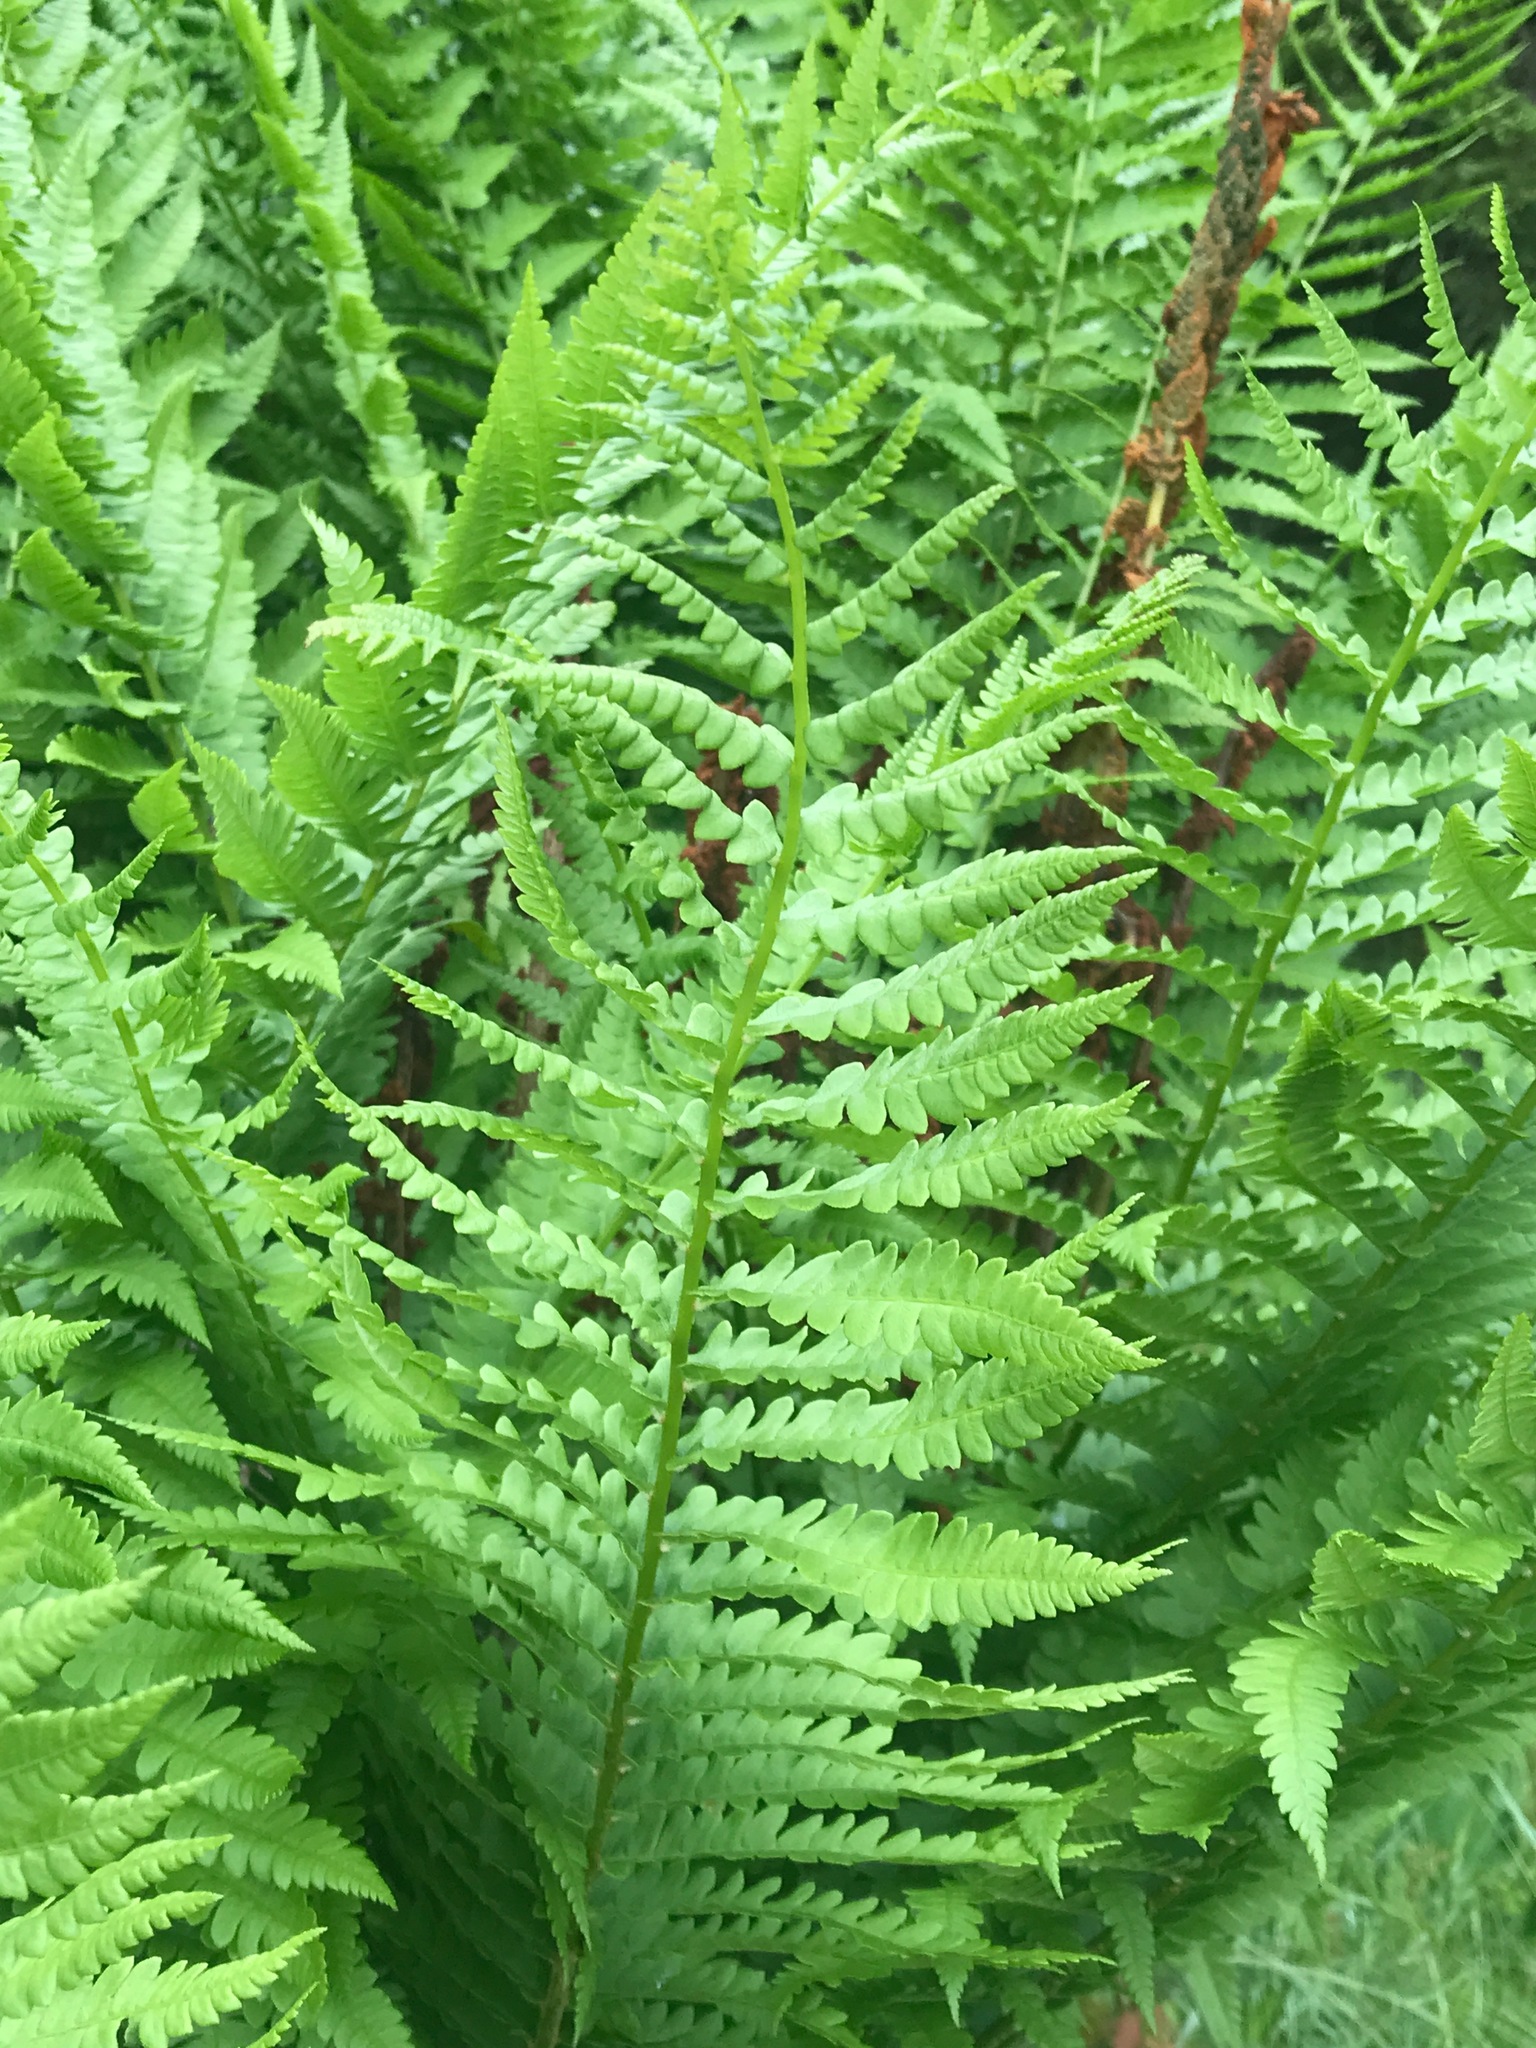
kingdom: Plantae
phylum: Tracheophyta
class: Polypodiopsida
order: Osmundales
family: Osmundaceae
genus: Osmundastrum
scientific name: Osmundastrum cinnamomeum
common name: Cinnamon fern
